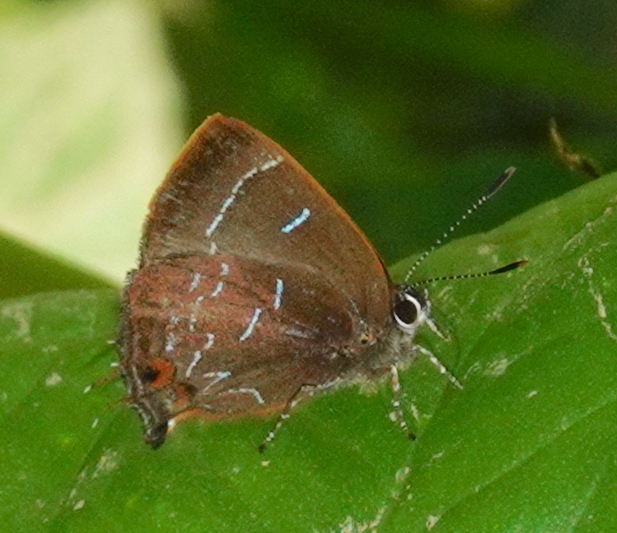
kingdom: Animalia
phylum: Arthropoda
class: Insecta
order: Lepidoptera
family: Lycaenidae
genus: Ocaria
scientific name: Ocaria aholiba
